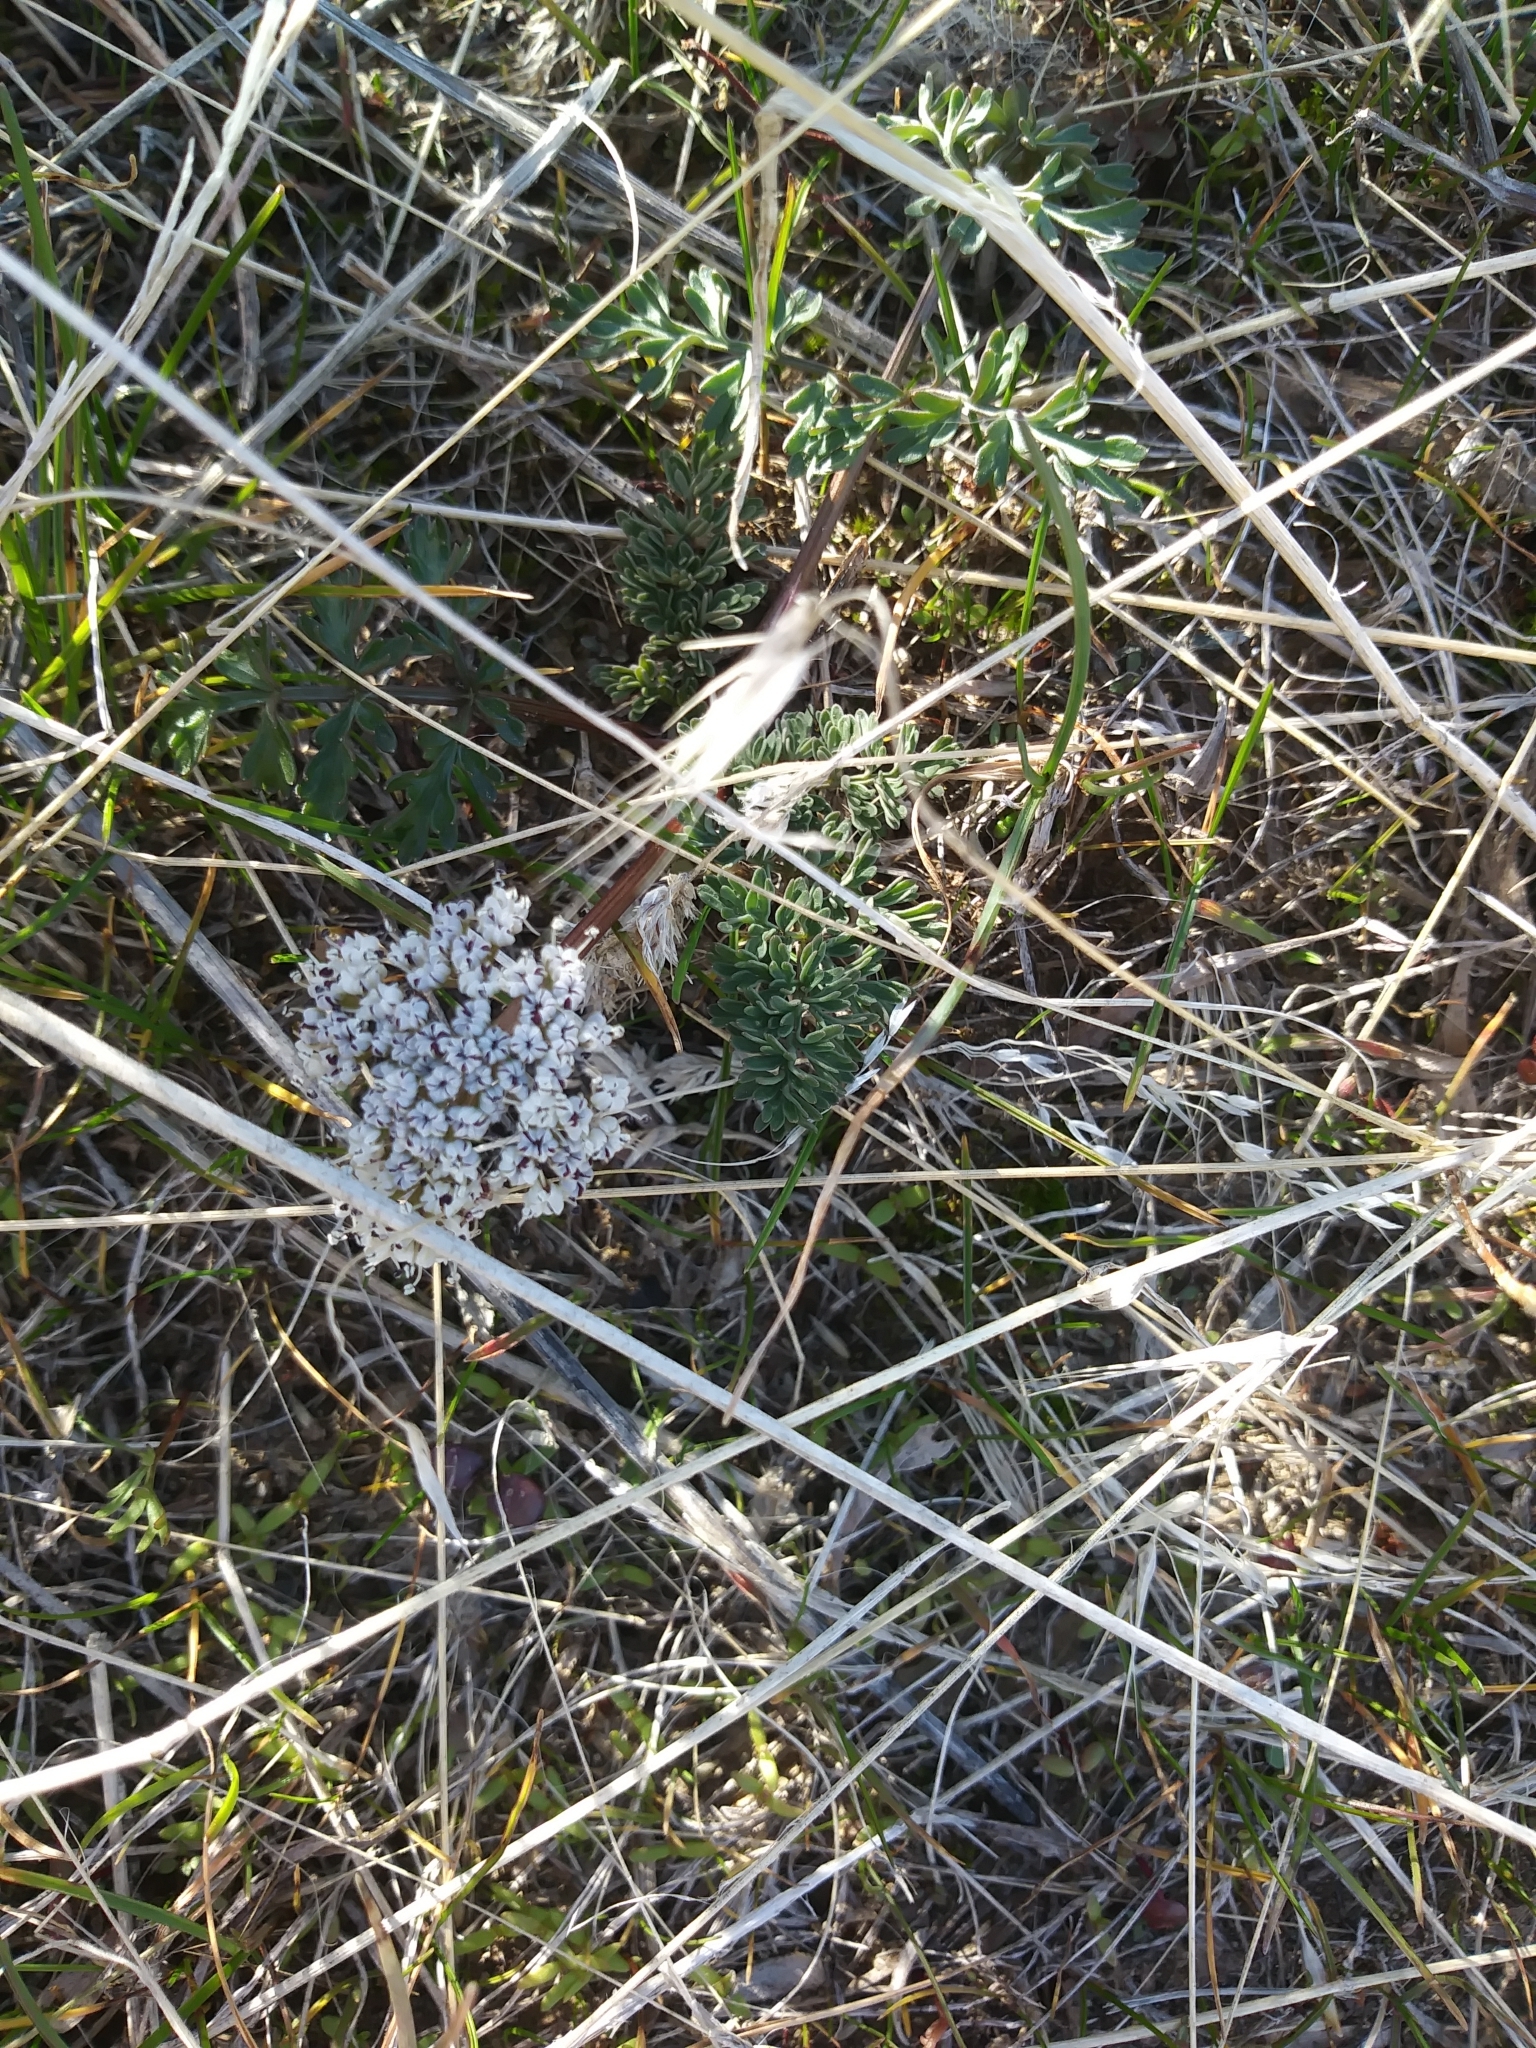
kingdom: Plantae
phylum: Tracheophyta
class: Magnoliopsida
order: Apiales
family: Apiaceae
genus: Lomatium
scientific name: Lomatium canbyi
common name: Chucklusa
